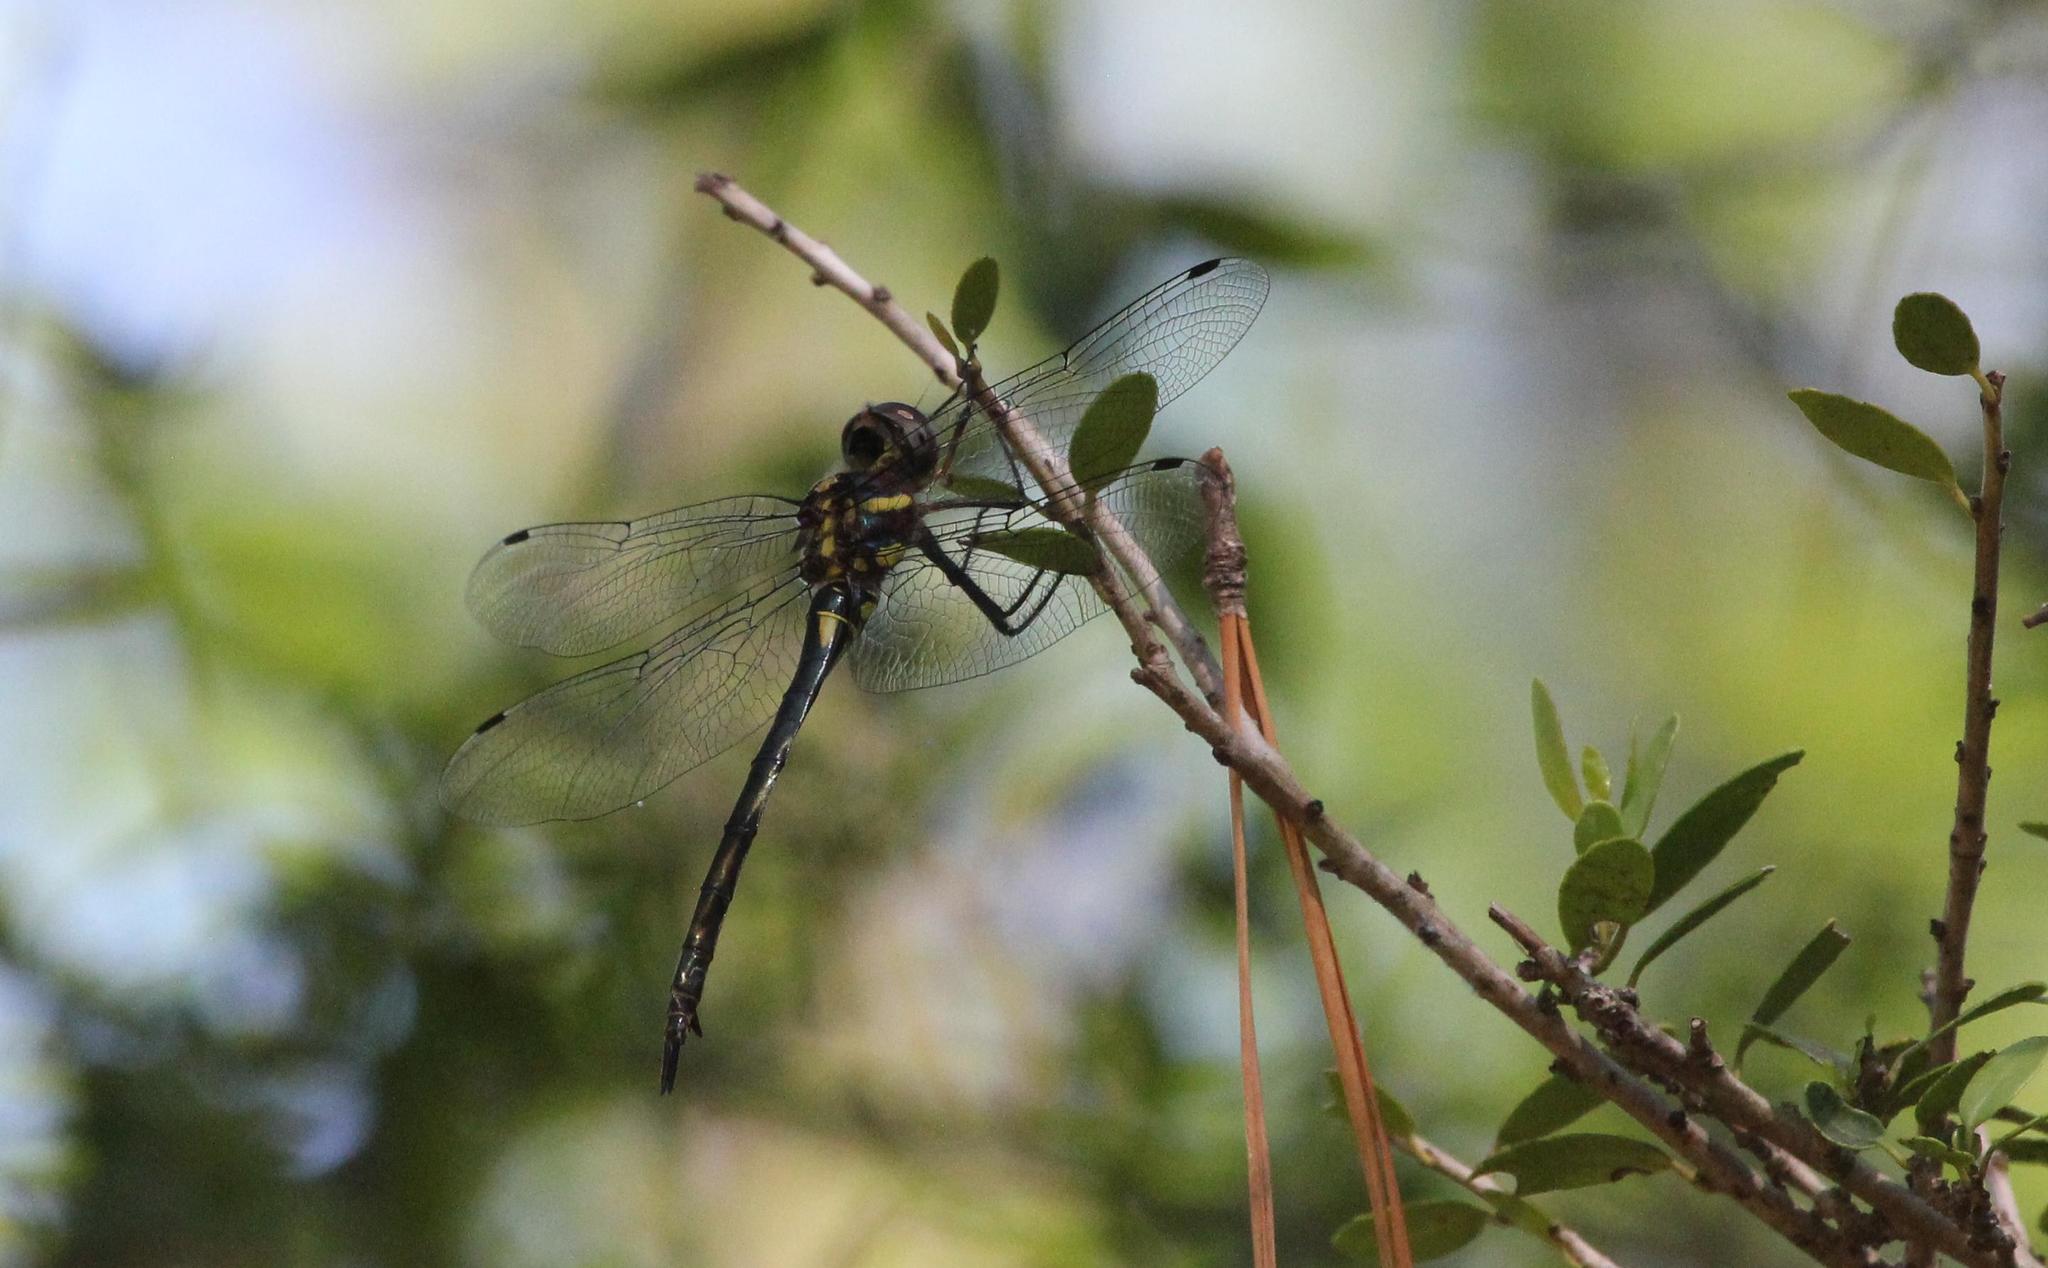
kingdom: Animalia
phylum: Arthropoda
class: Insecta
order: Odonata
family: Corduliidae
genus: Somatochlora
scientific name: Somatochlora tenebrosa
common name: Clamp-tipped emerald
